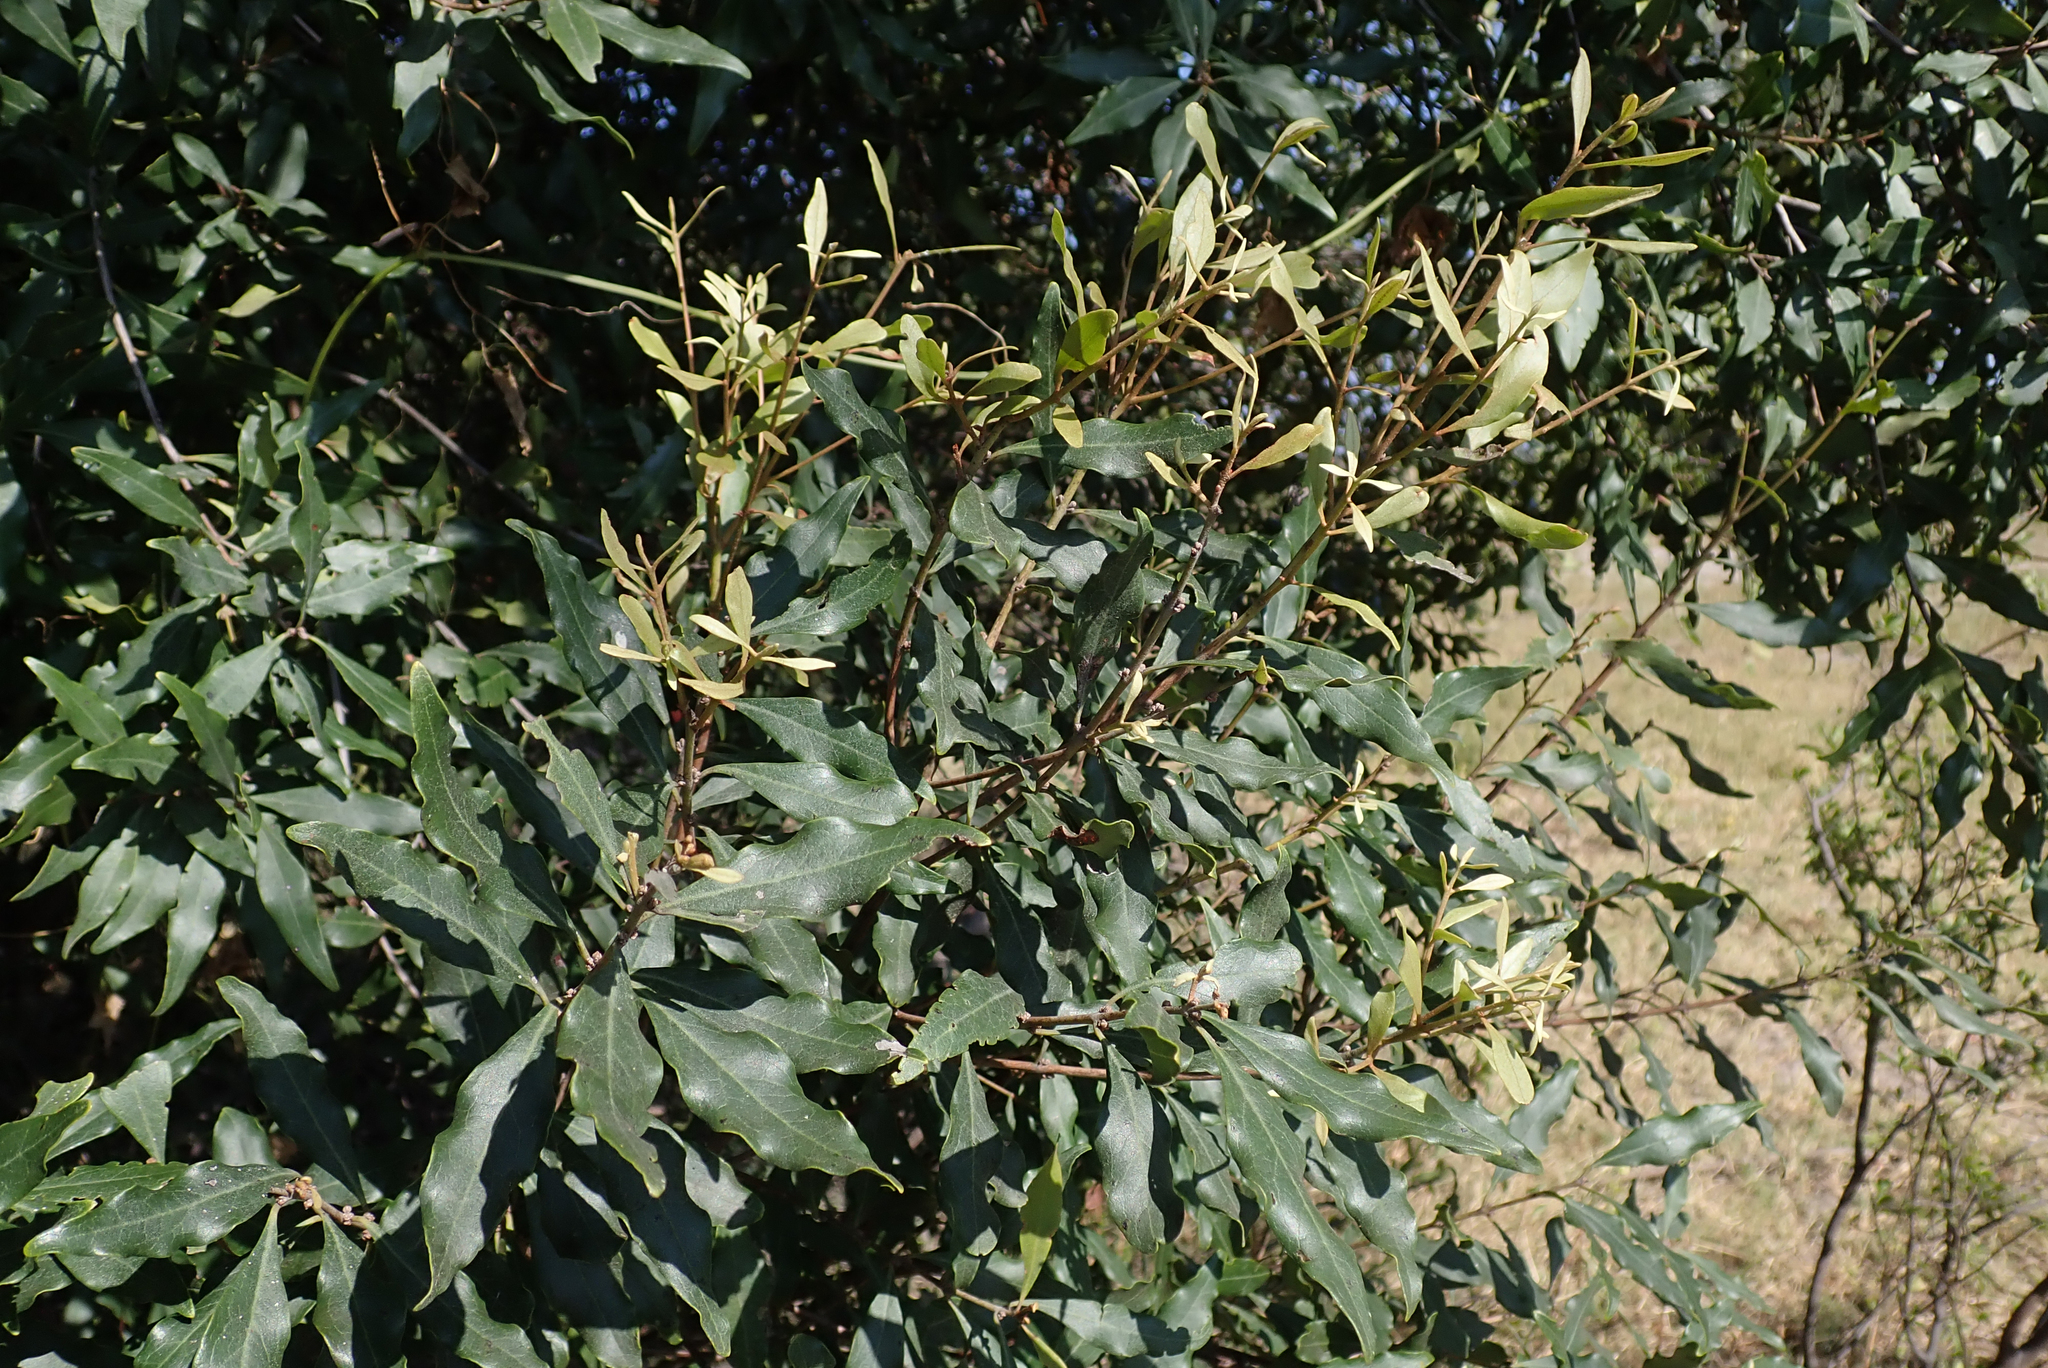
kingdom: Plantae
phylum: Tracheophyta
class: Magnoliopsida
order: Ericales
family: Ebenaceae
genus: Euclea
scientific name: Euclea divinorum
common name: Diamond-leaved euclea
